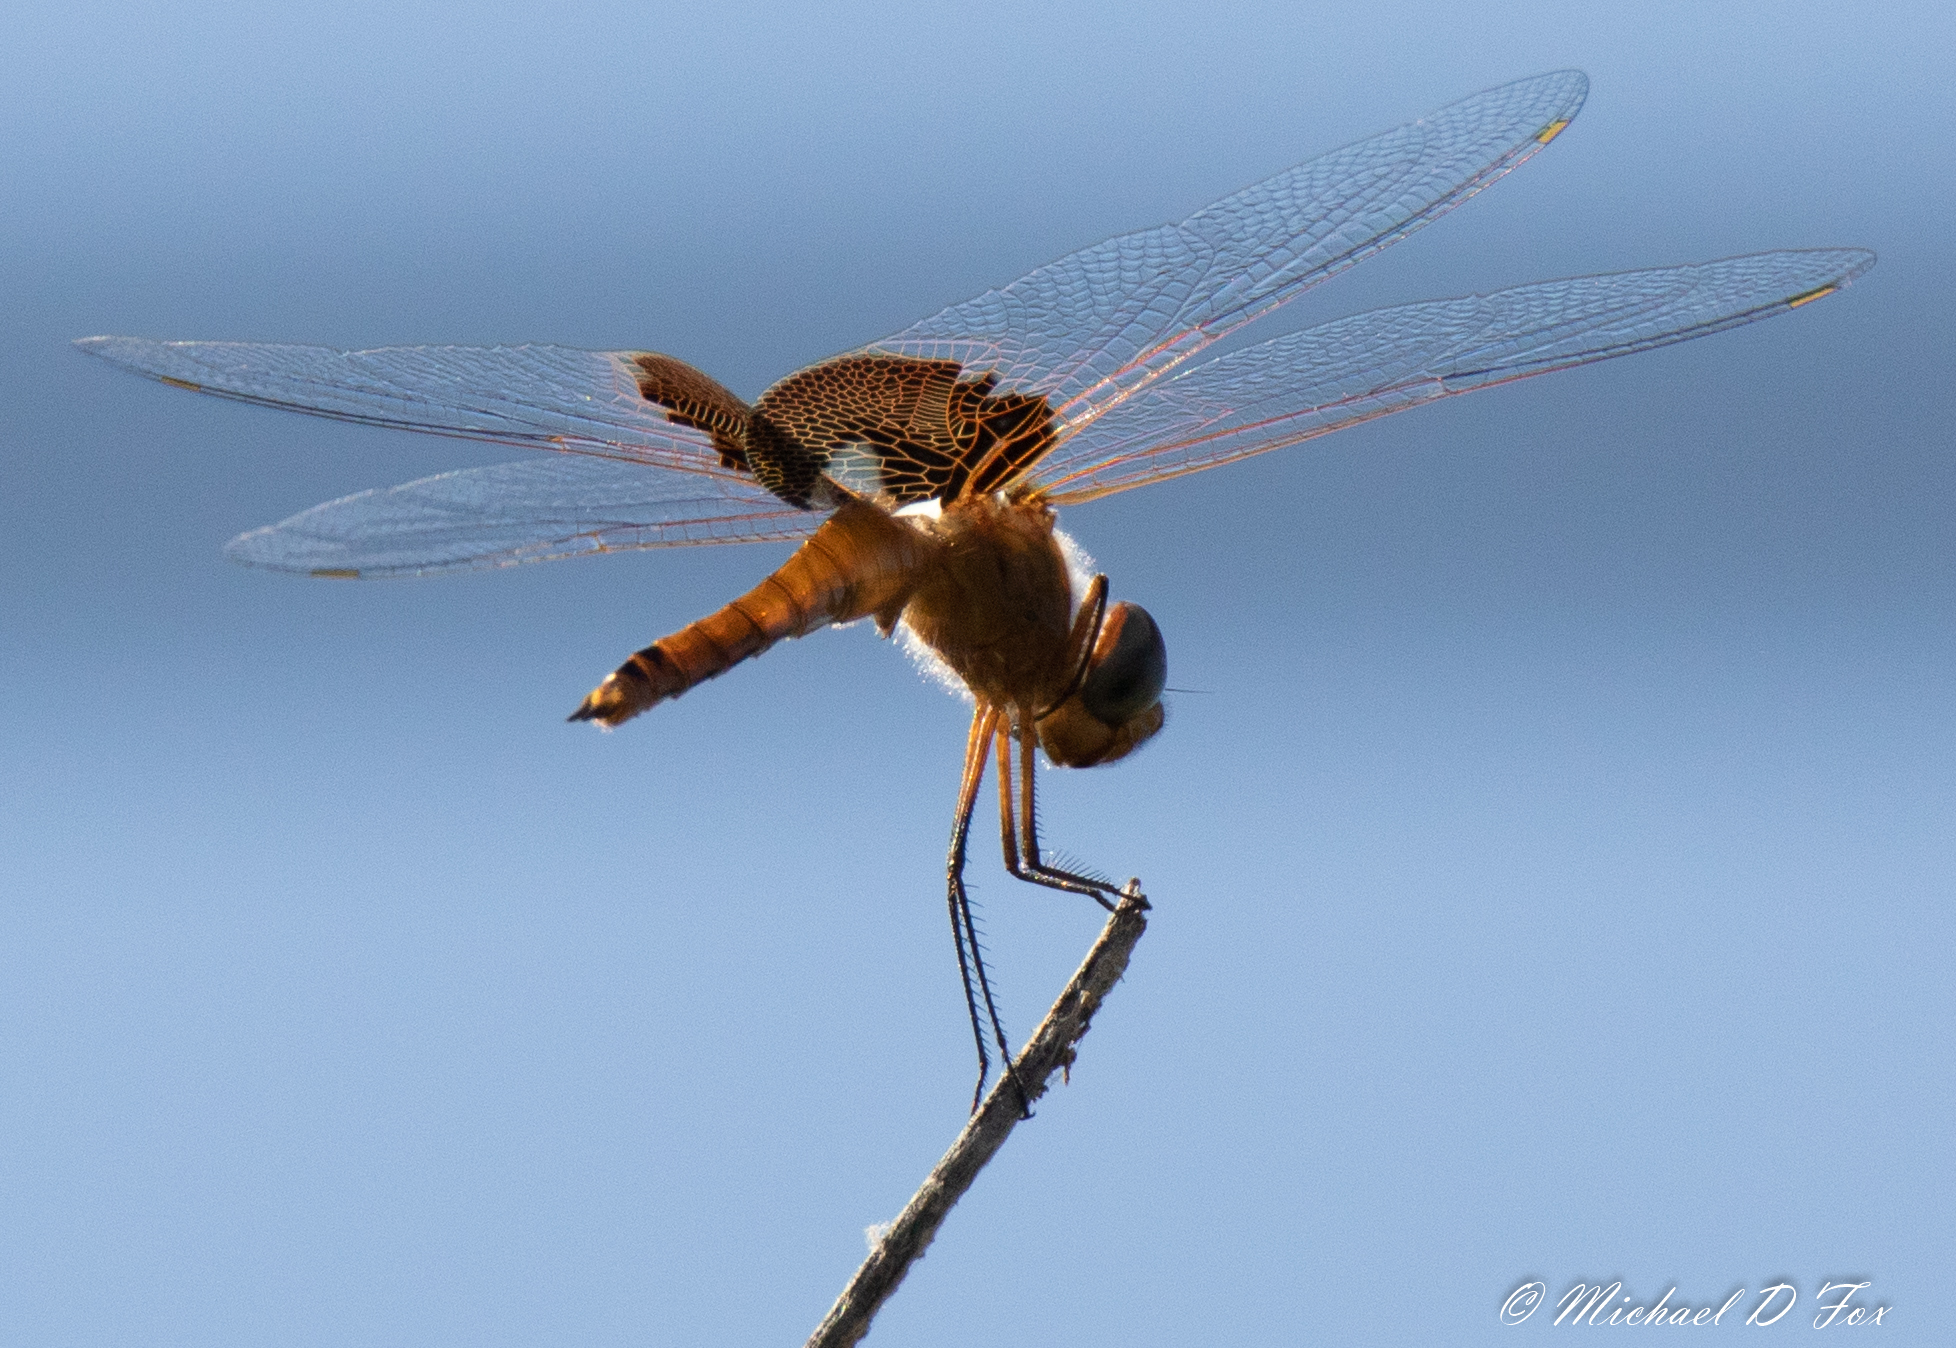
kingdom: Animalia
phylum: Arthropoda
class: Insecta
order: Odonata
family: Libellulidae
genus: Tramea
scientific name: Tramea onusta
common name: Red saddlebags
